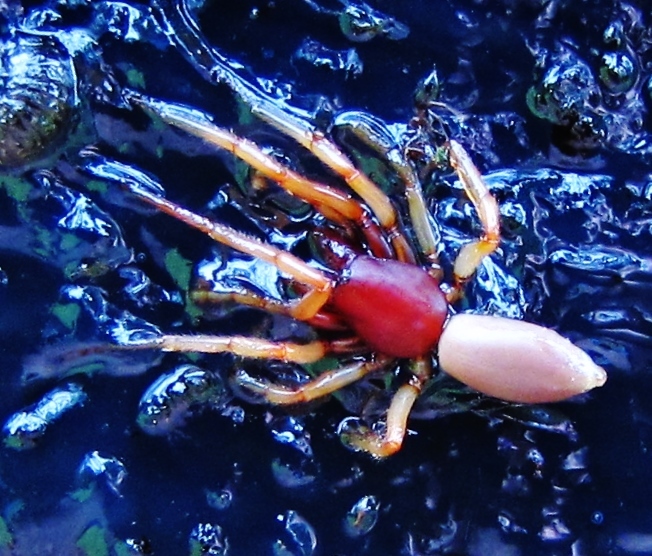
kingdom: Animalia
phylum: Arthropoda
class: Arachnida
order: Araneae
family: Dysderidae
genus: Dysdera
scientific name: Dysdera crocata
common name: Woodlouse spider
